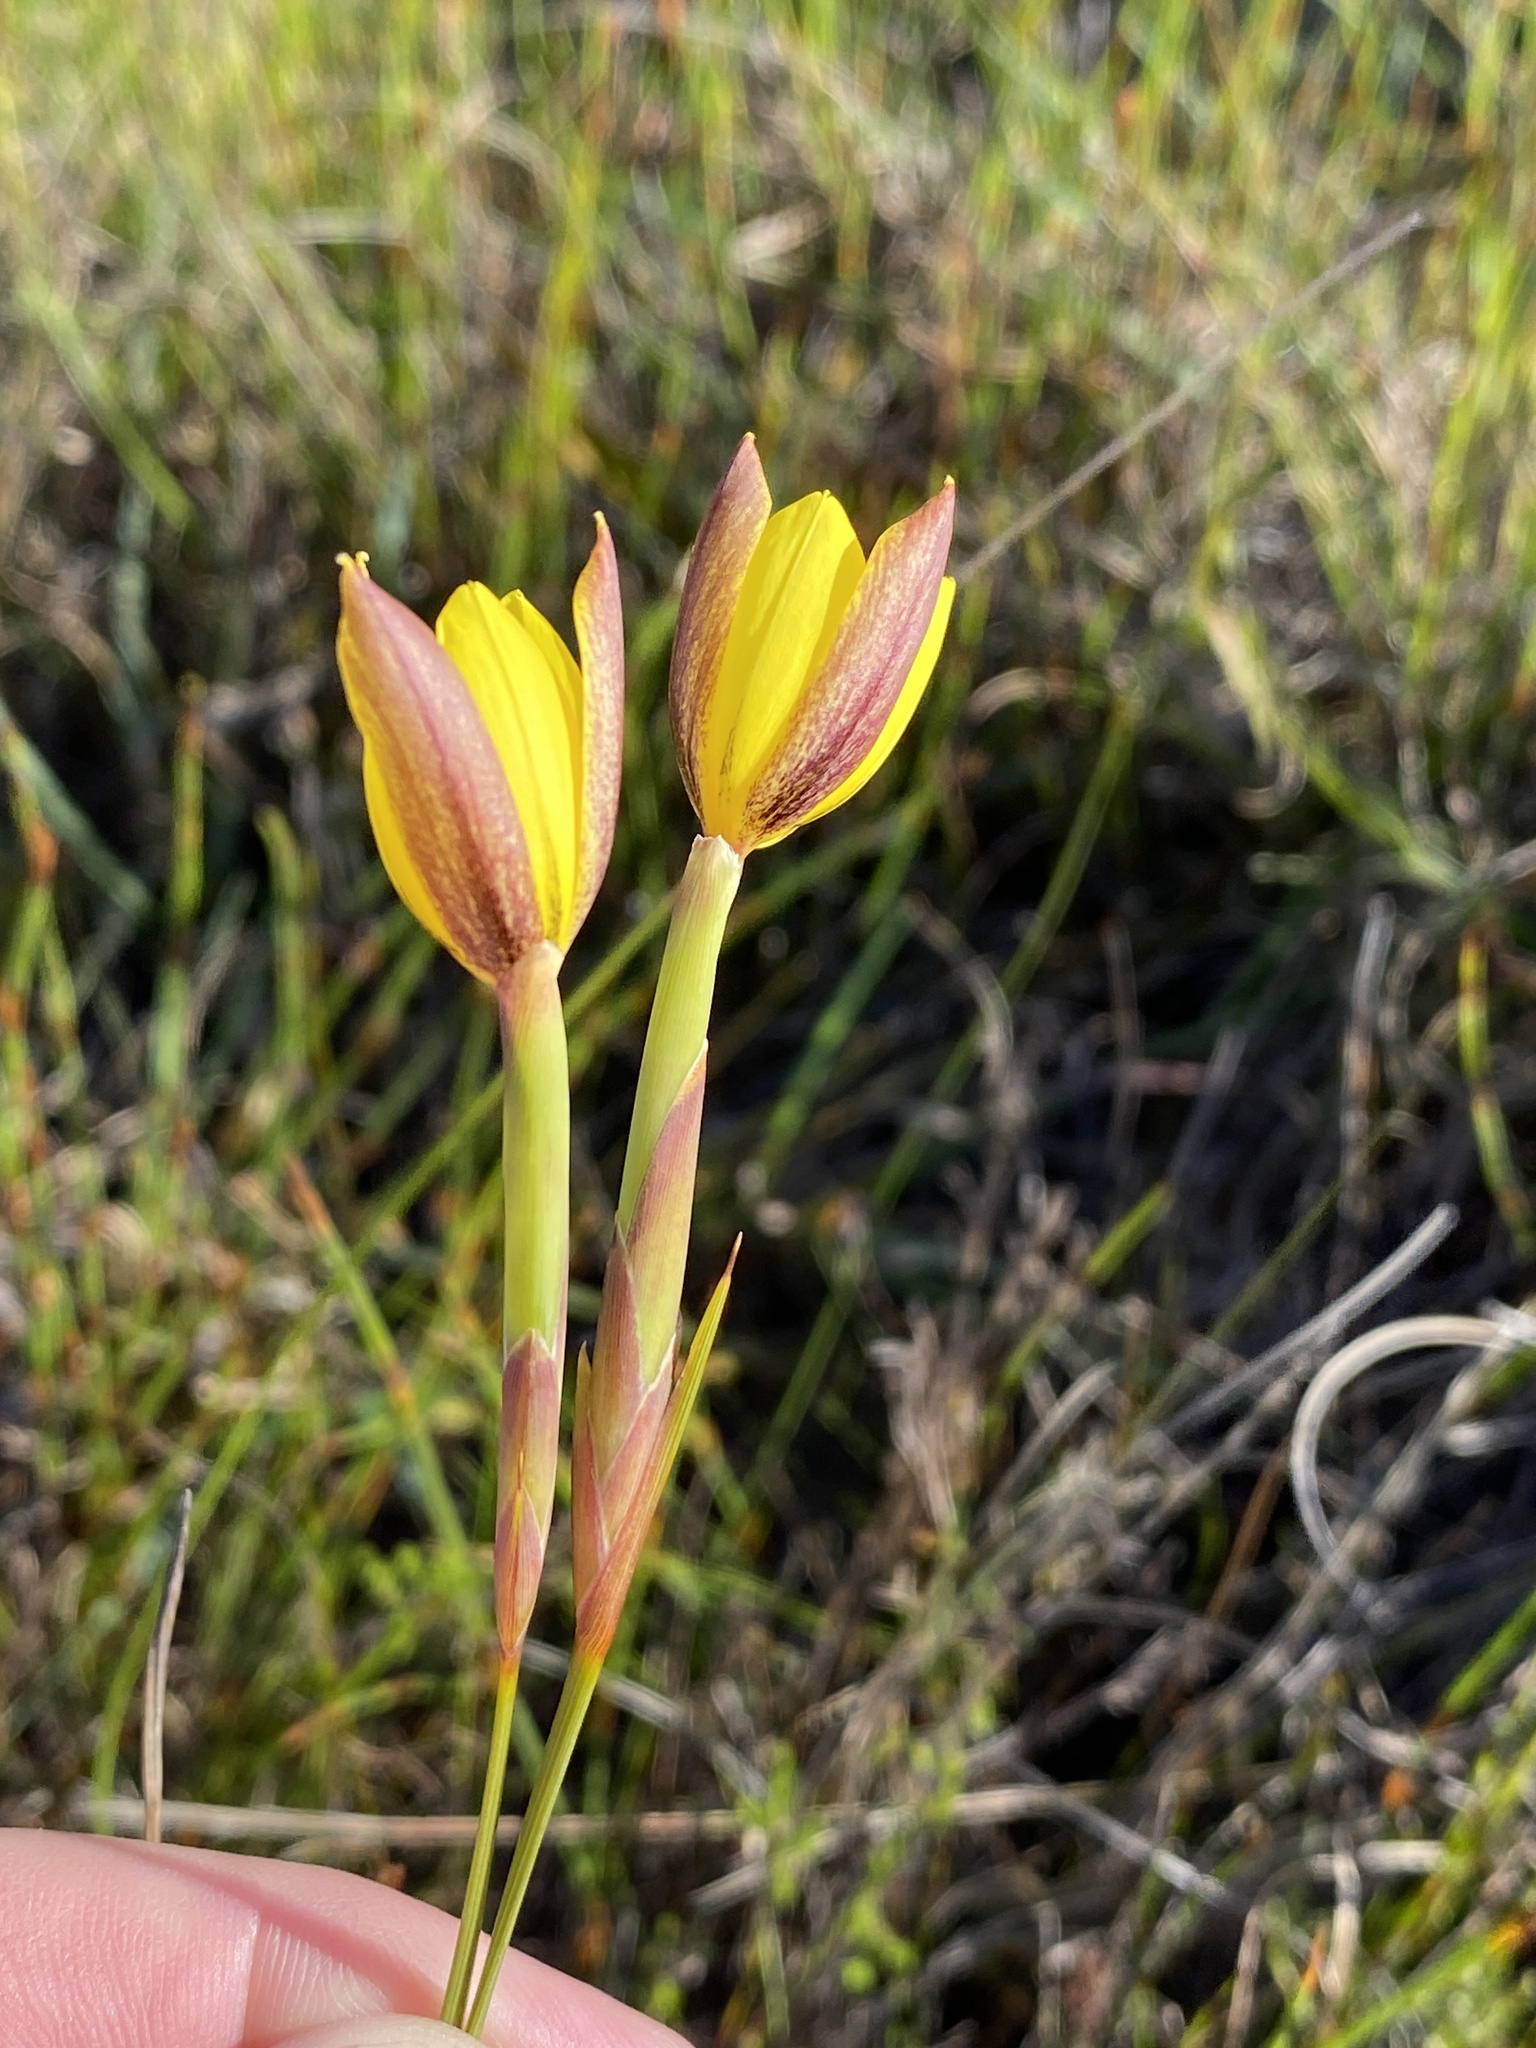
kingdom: Plantae
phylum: Tracheophyta
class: Liliopsida
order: Asparagales
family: Iridaceae
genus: Bobartia
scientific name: Bobartia filiformis
